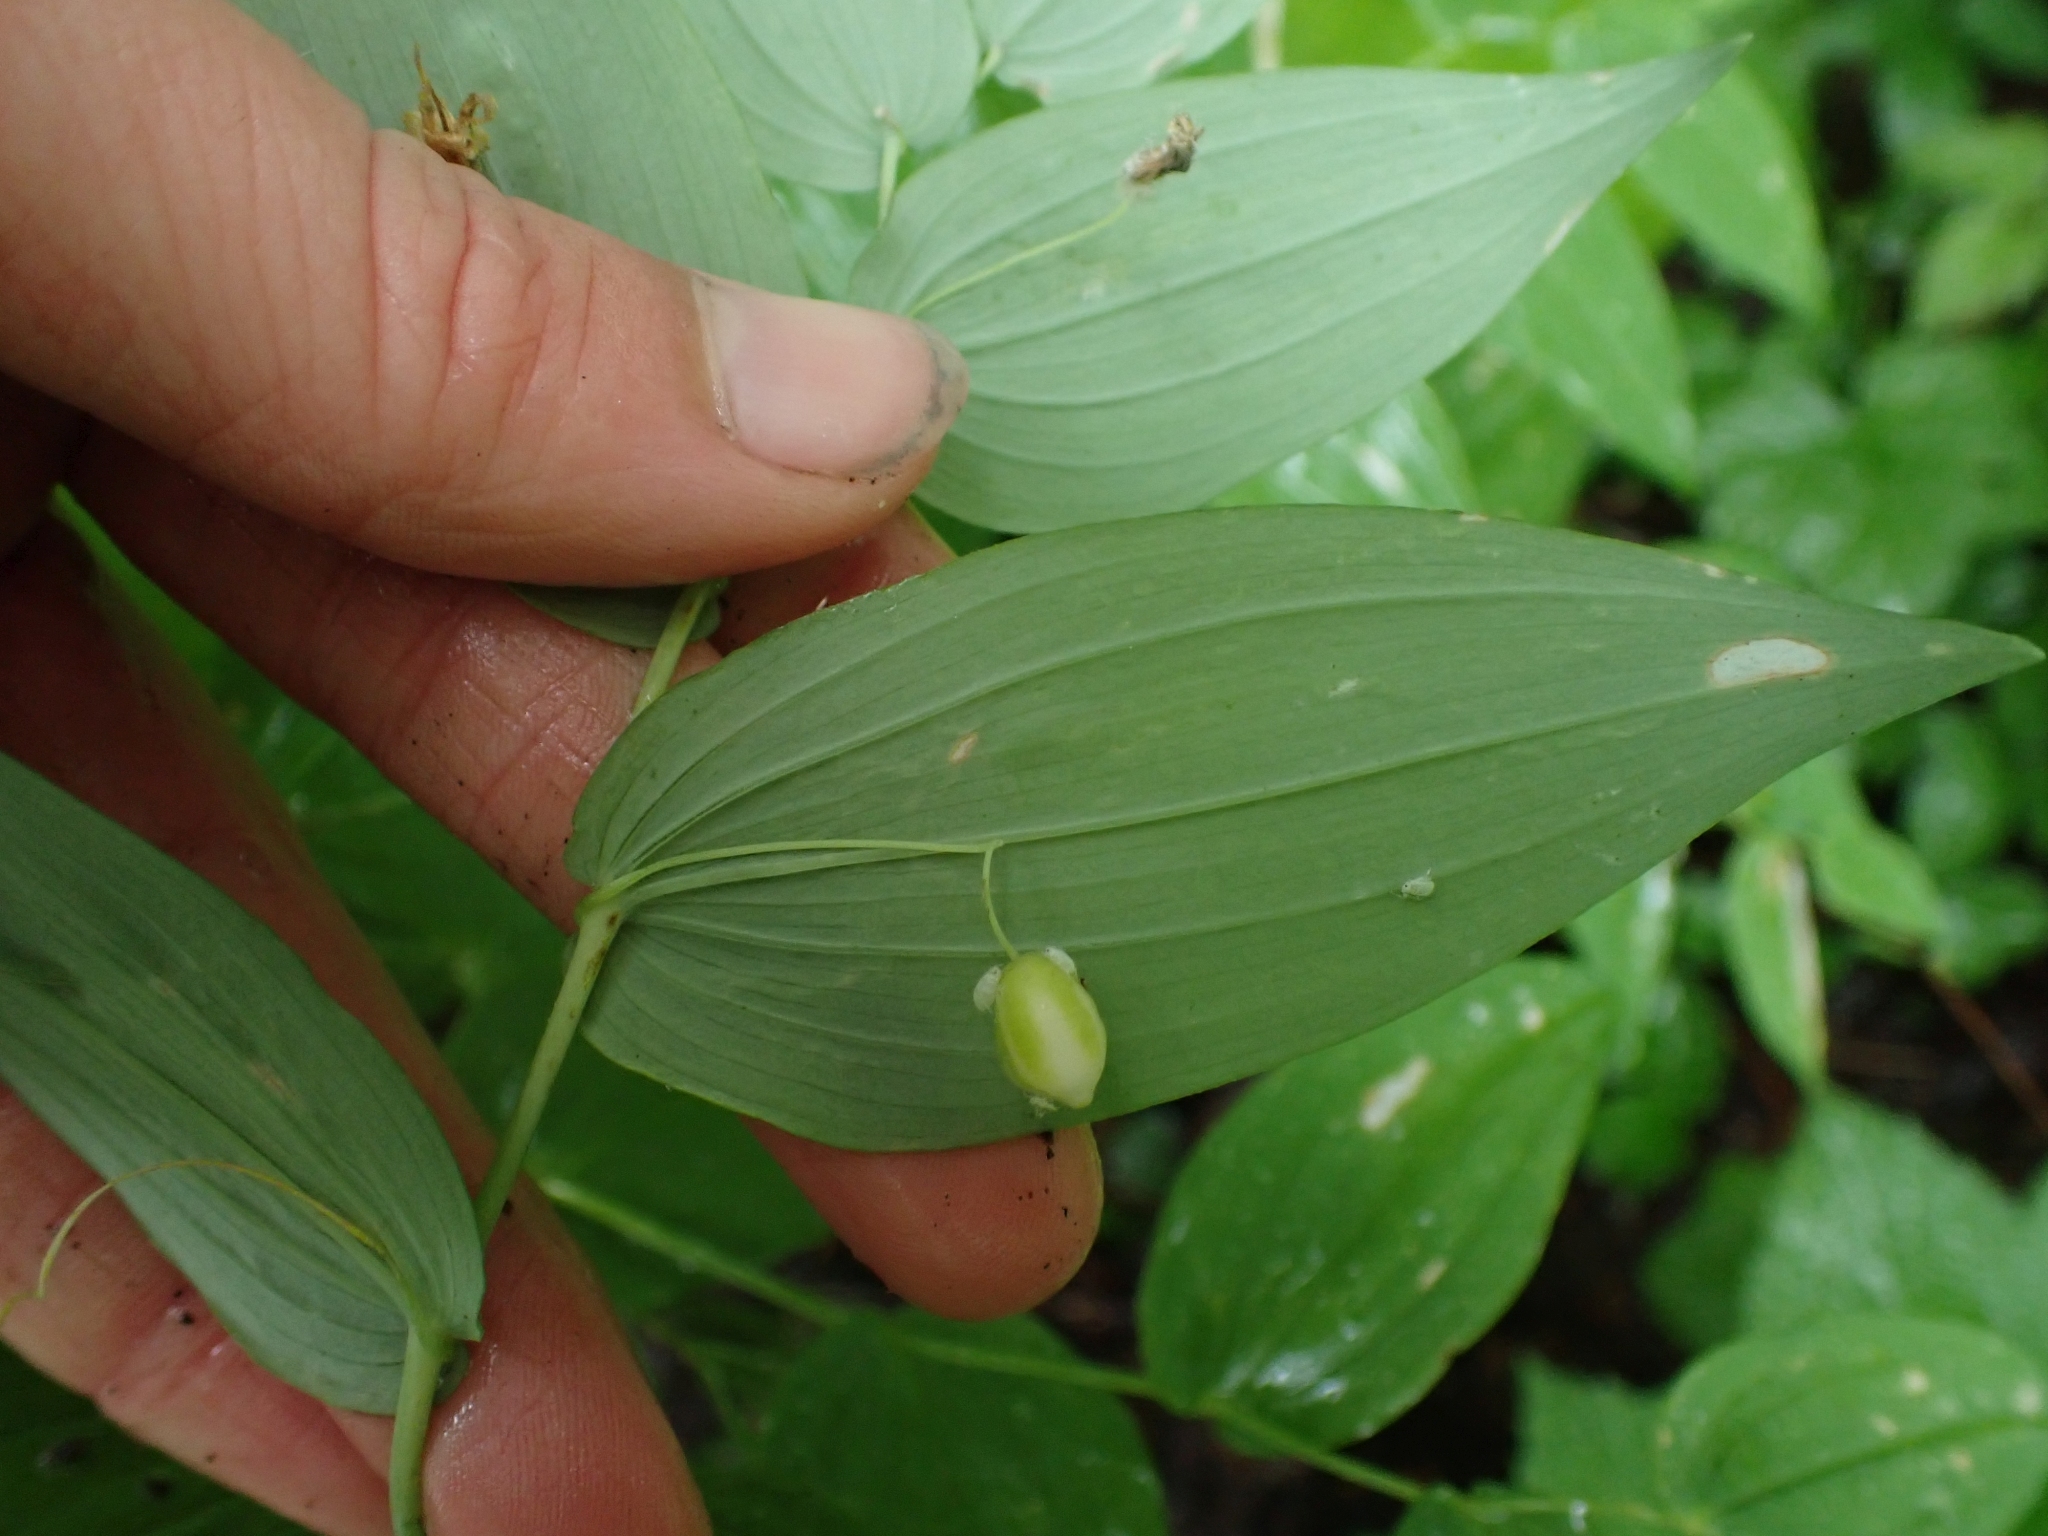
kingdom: Plantae
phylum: Tracheophyta
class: Liliopsida
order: Liliales
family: Liliaceae
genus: Streptopus
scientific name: Streptopus amplexifolius
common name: Clasp twisted stalk
